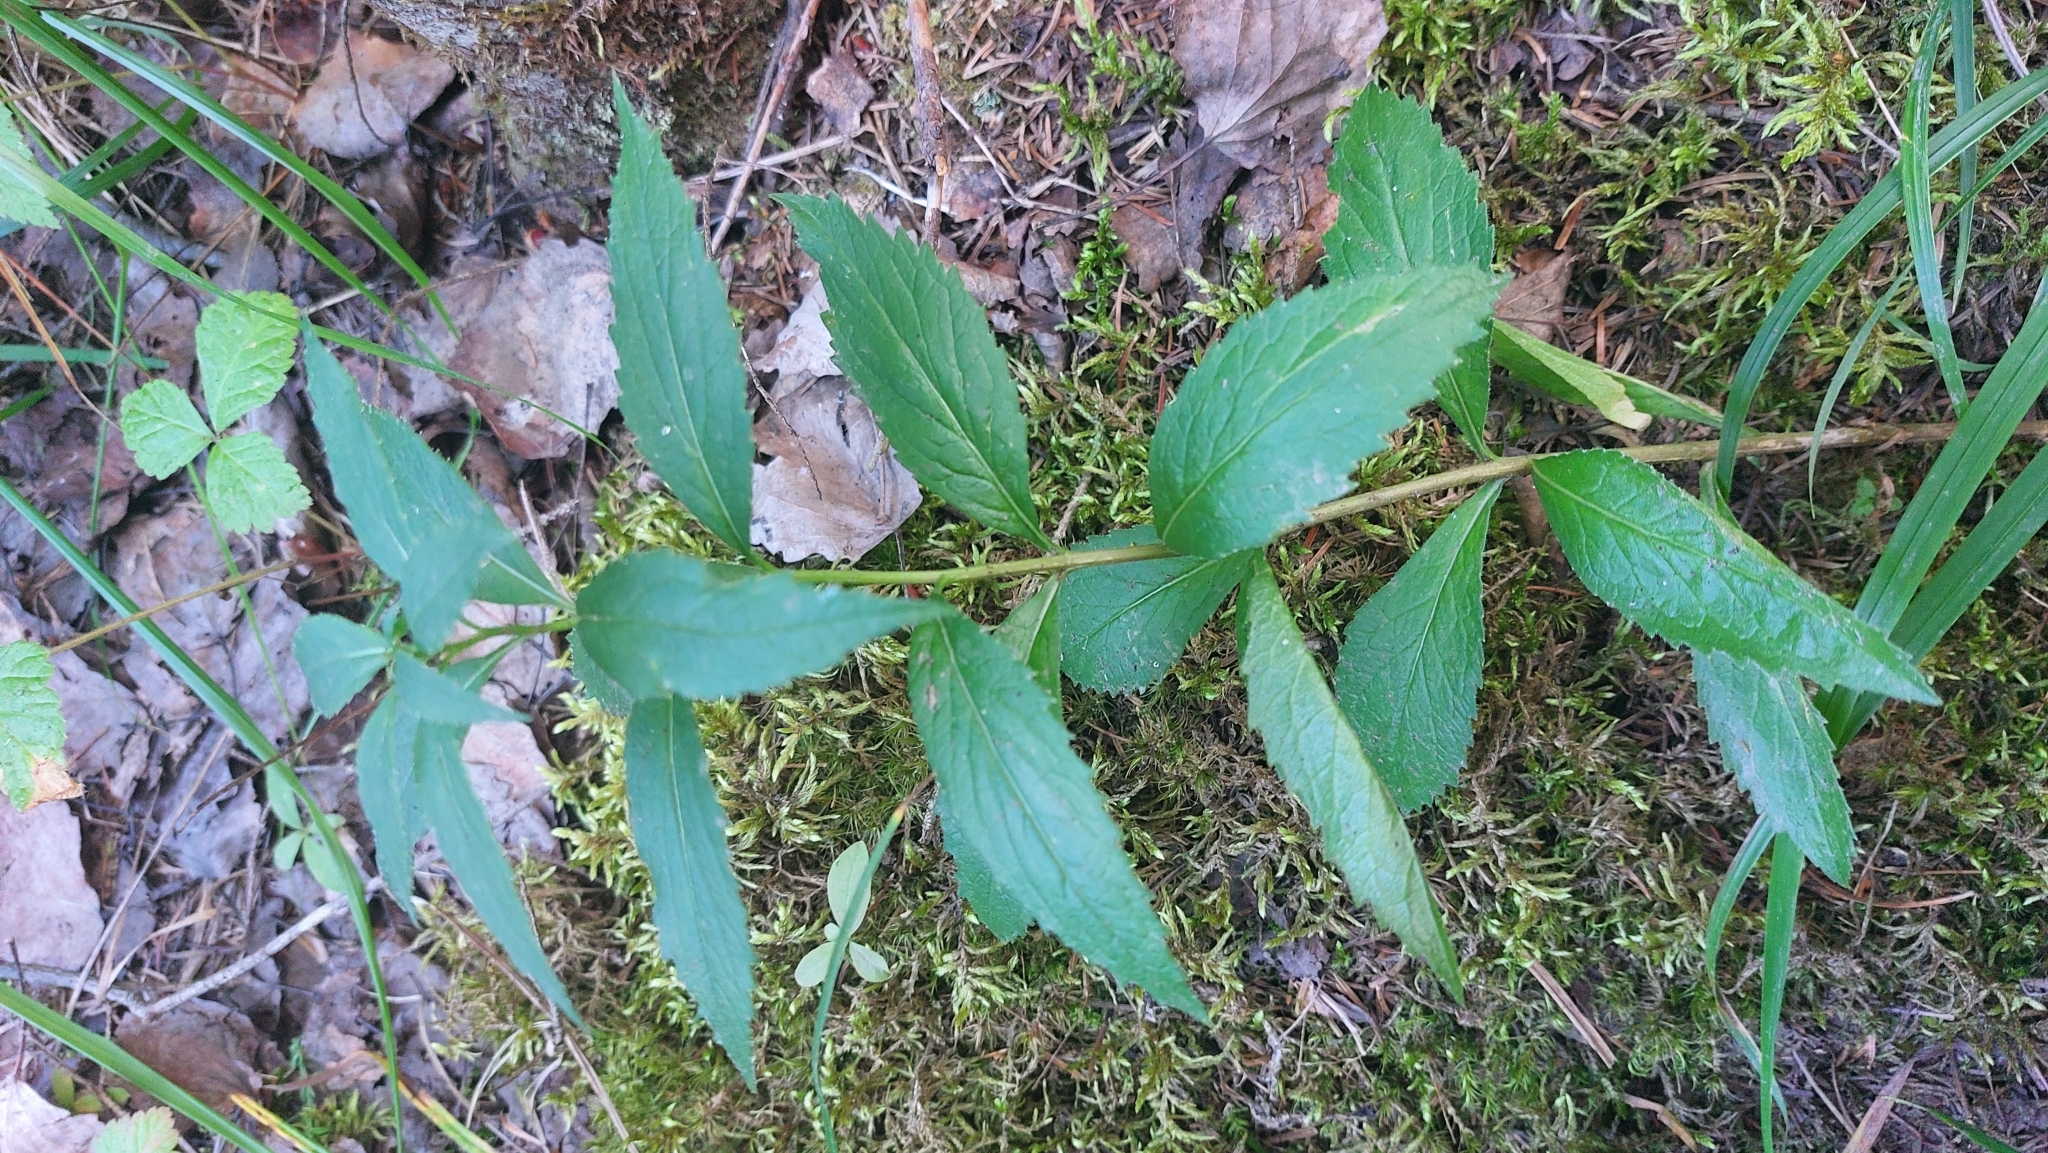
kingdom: Plantae
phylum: Tracheophyta
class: Magnoliopsida
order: Asterales
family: Campanulaceae
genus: Adenophora
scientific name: Adenophora liliifolia
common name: Lilyleaf ladybells
